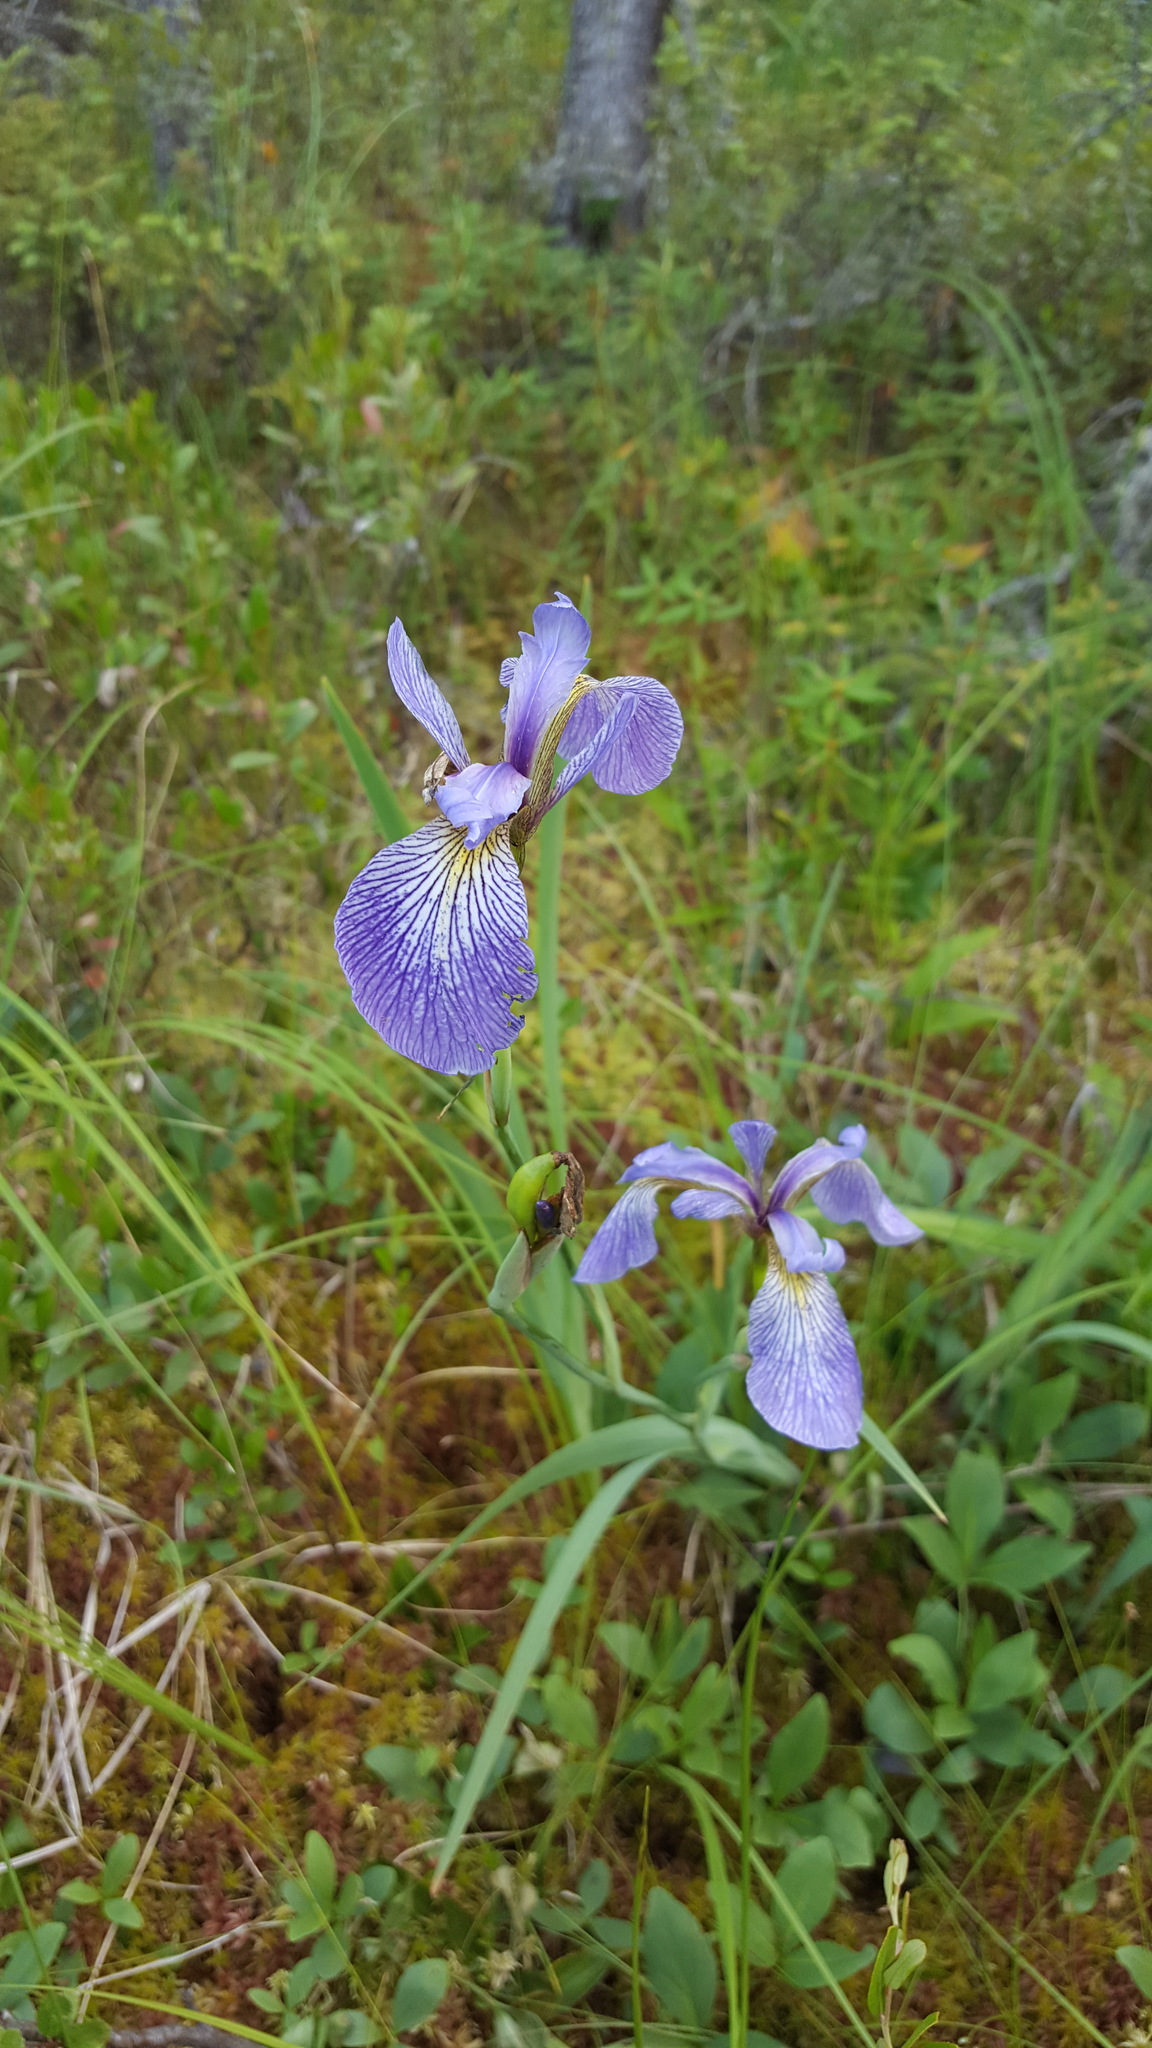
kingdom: Plantae
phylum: Tracheophyta
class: Liliopsida
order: Asparagales
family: Iridaceae
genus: Iris
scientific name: Iris versicolor
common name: Purple iris
